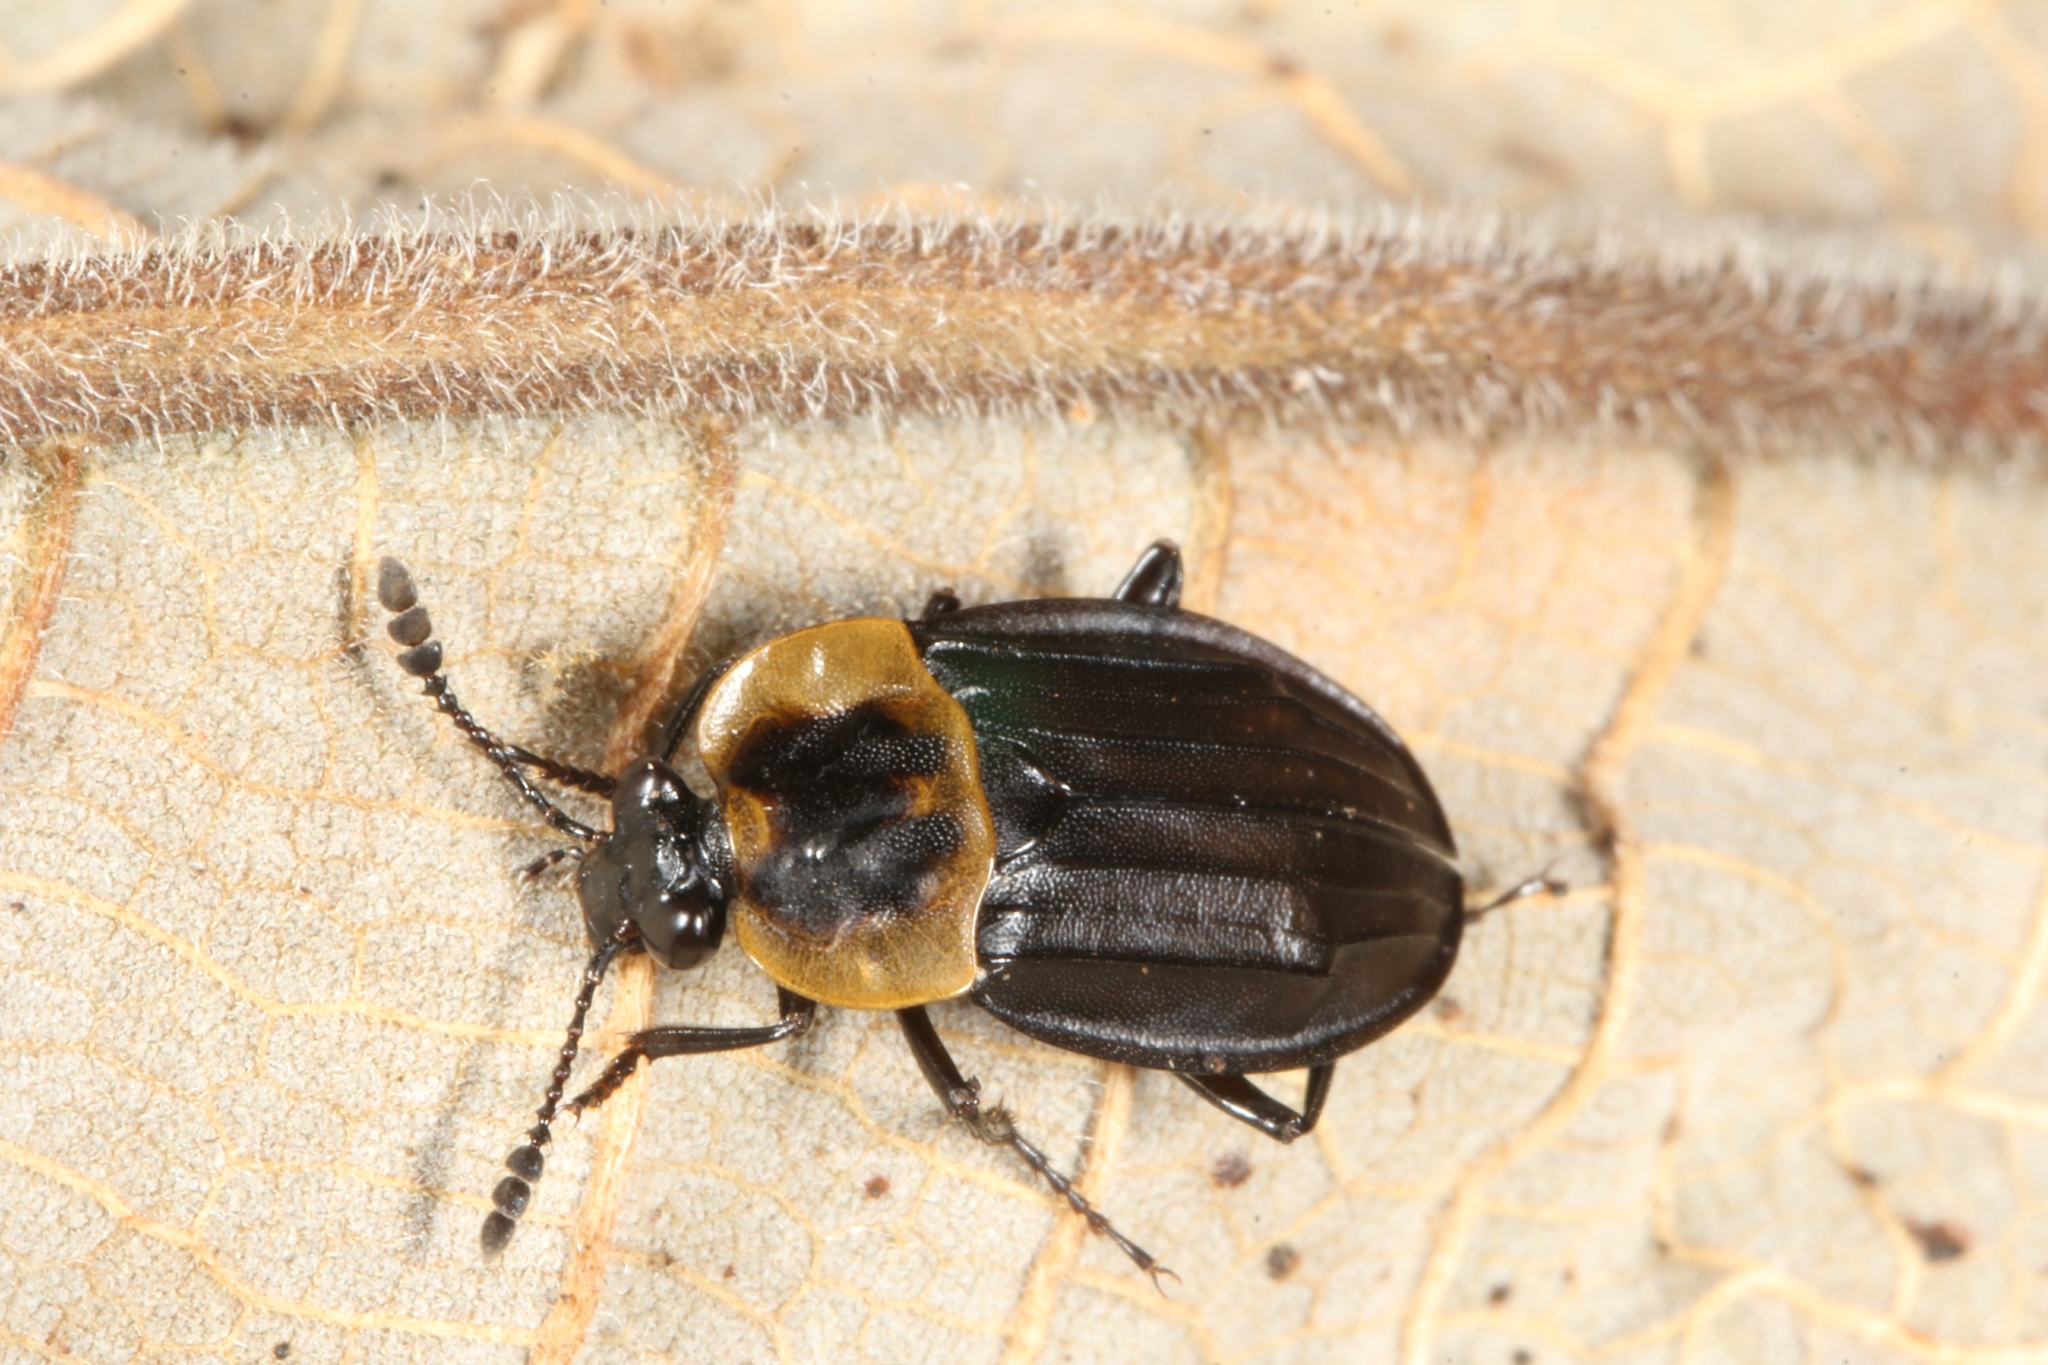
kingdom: Animalia
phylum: Arthropoda
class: Insecta
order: Coleoptera
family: Staphylinidae
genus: Oxelytrum
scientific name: Oxelytrum discicolle
